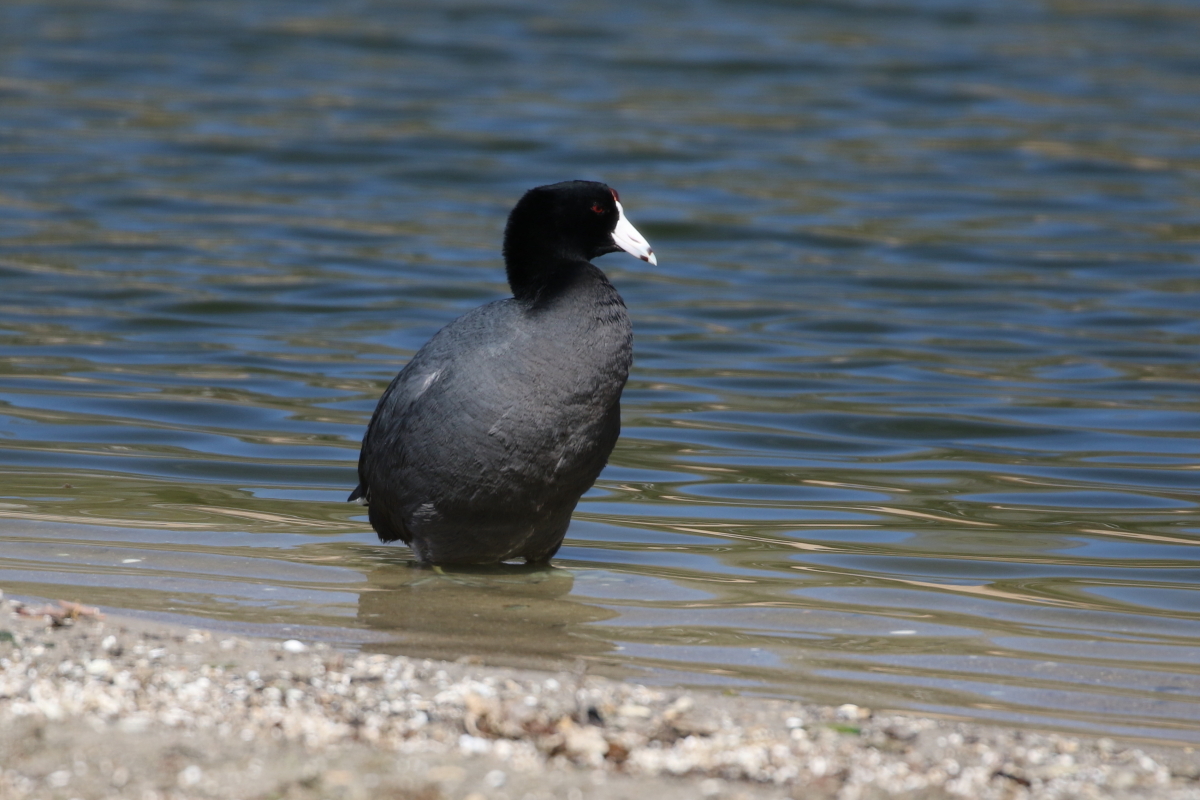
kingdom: Animalia
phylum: Chordata
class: Aves
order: Gruiformes
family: Rallidae
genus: Fulica
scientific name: Fulica americana
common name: American coot
